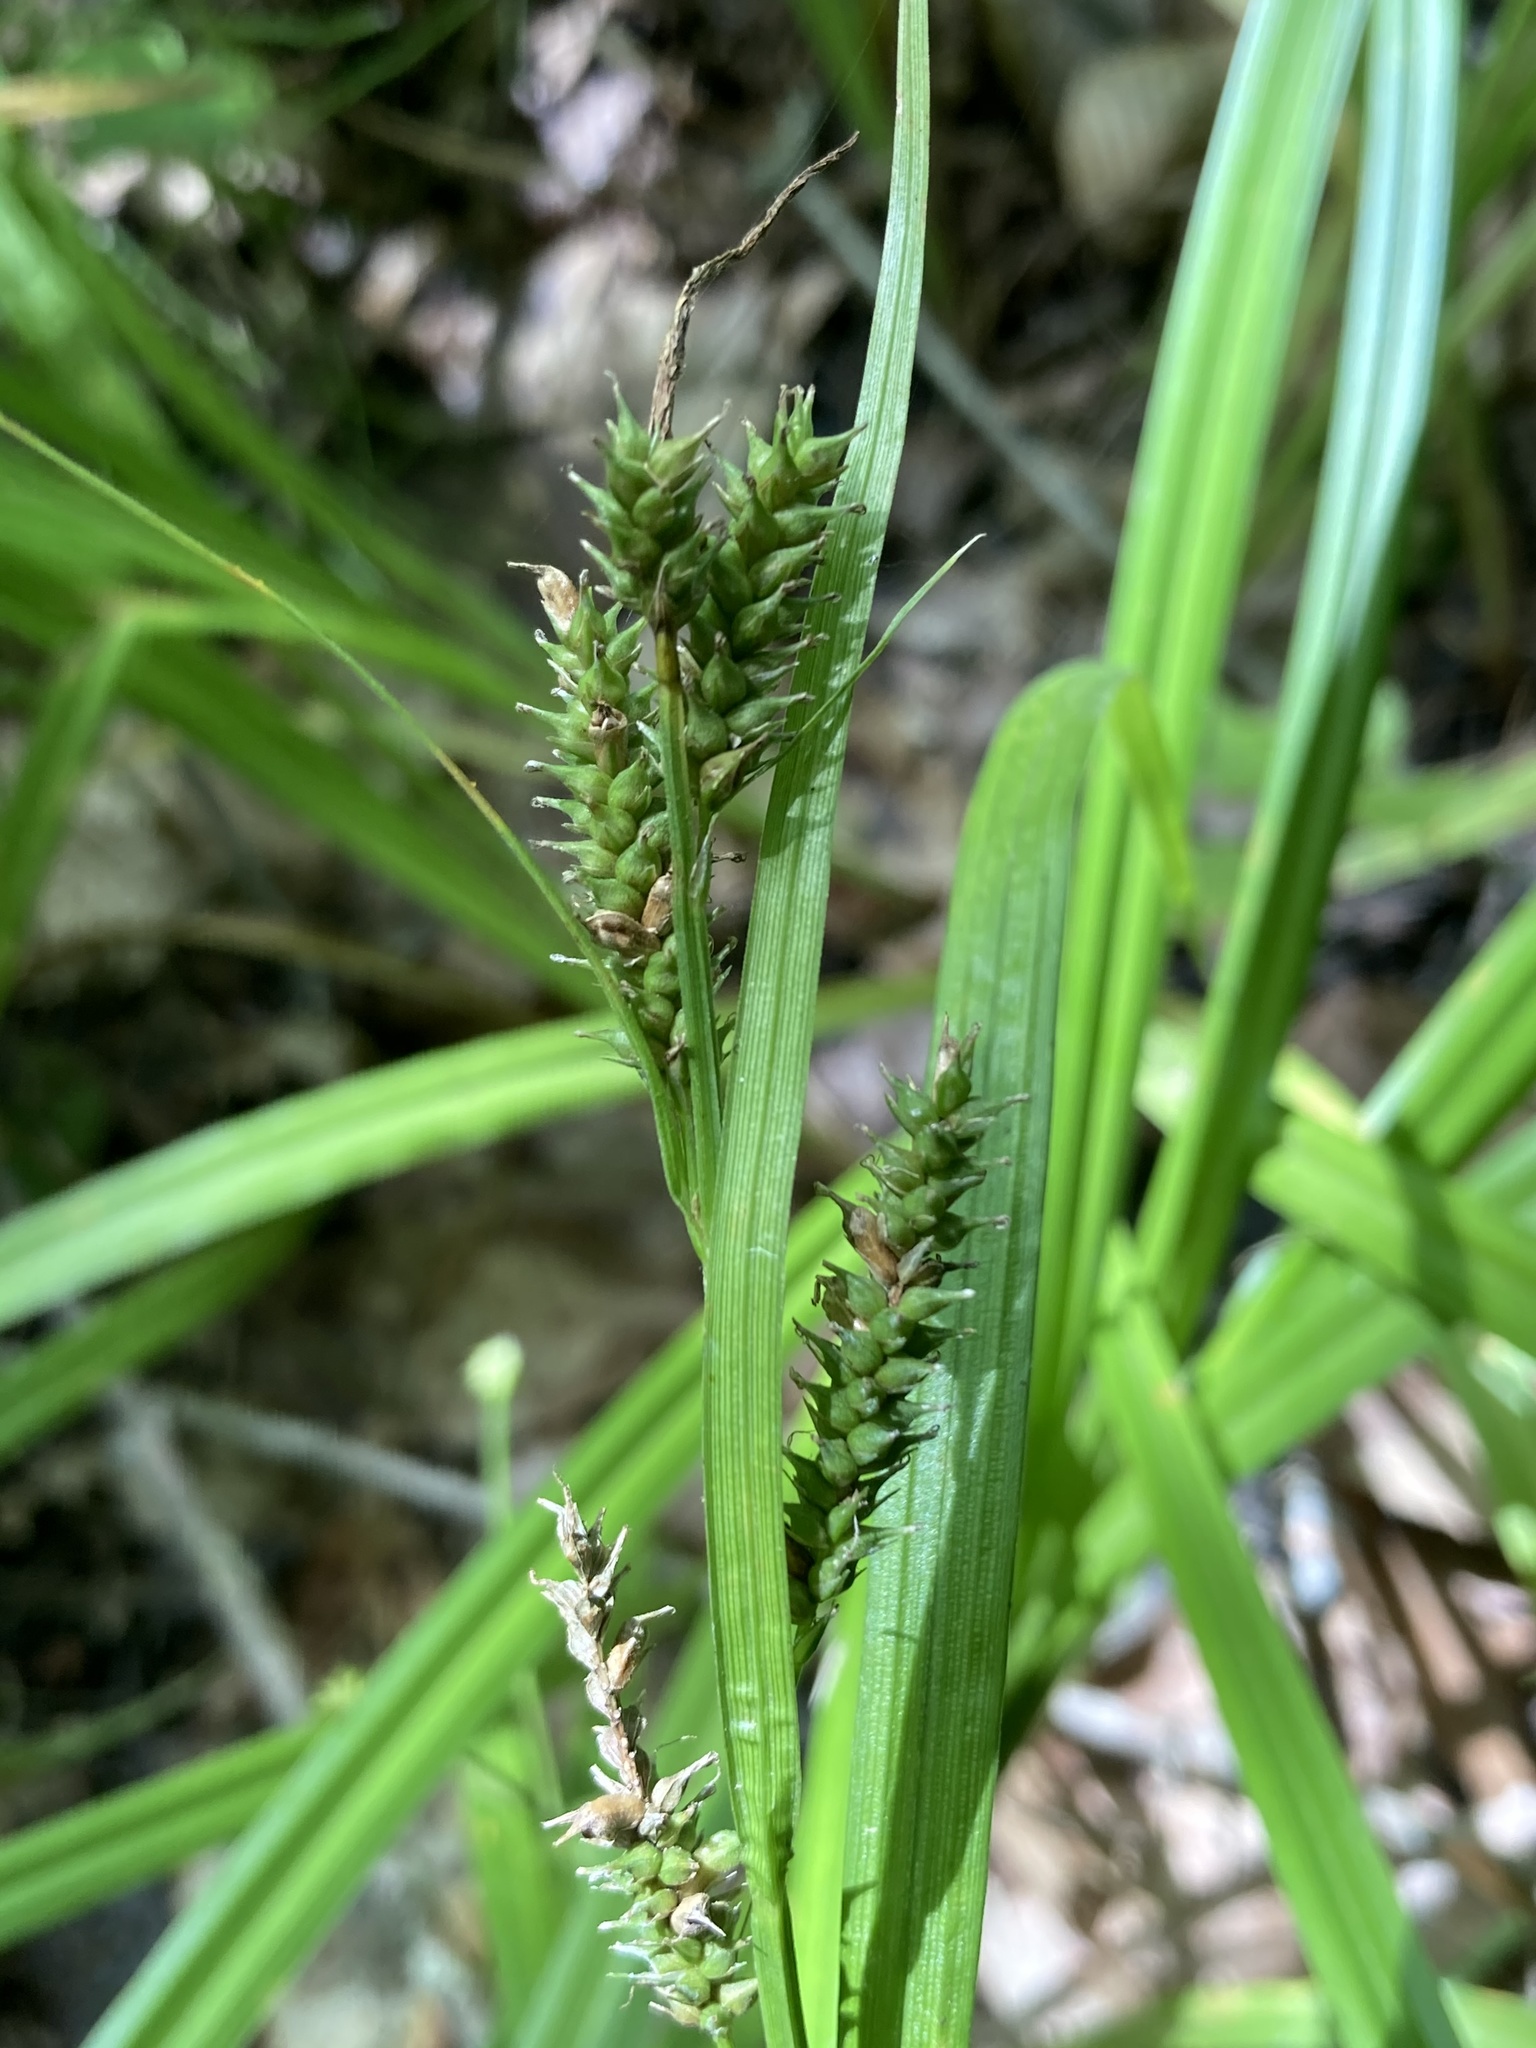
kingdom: Plantae
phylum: Tracheophyta
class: Liliopsida
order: Poales
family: Cyperaceae
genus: Carex
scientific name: Carex scabrata
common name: Eastern rough sedge
